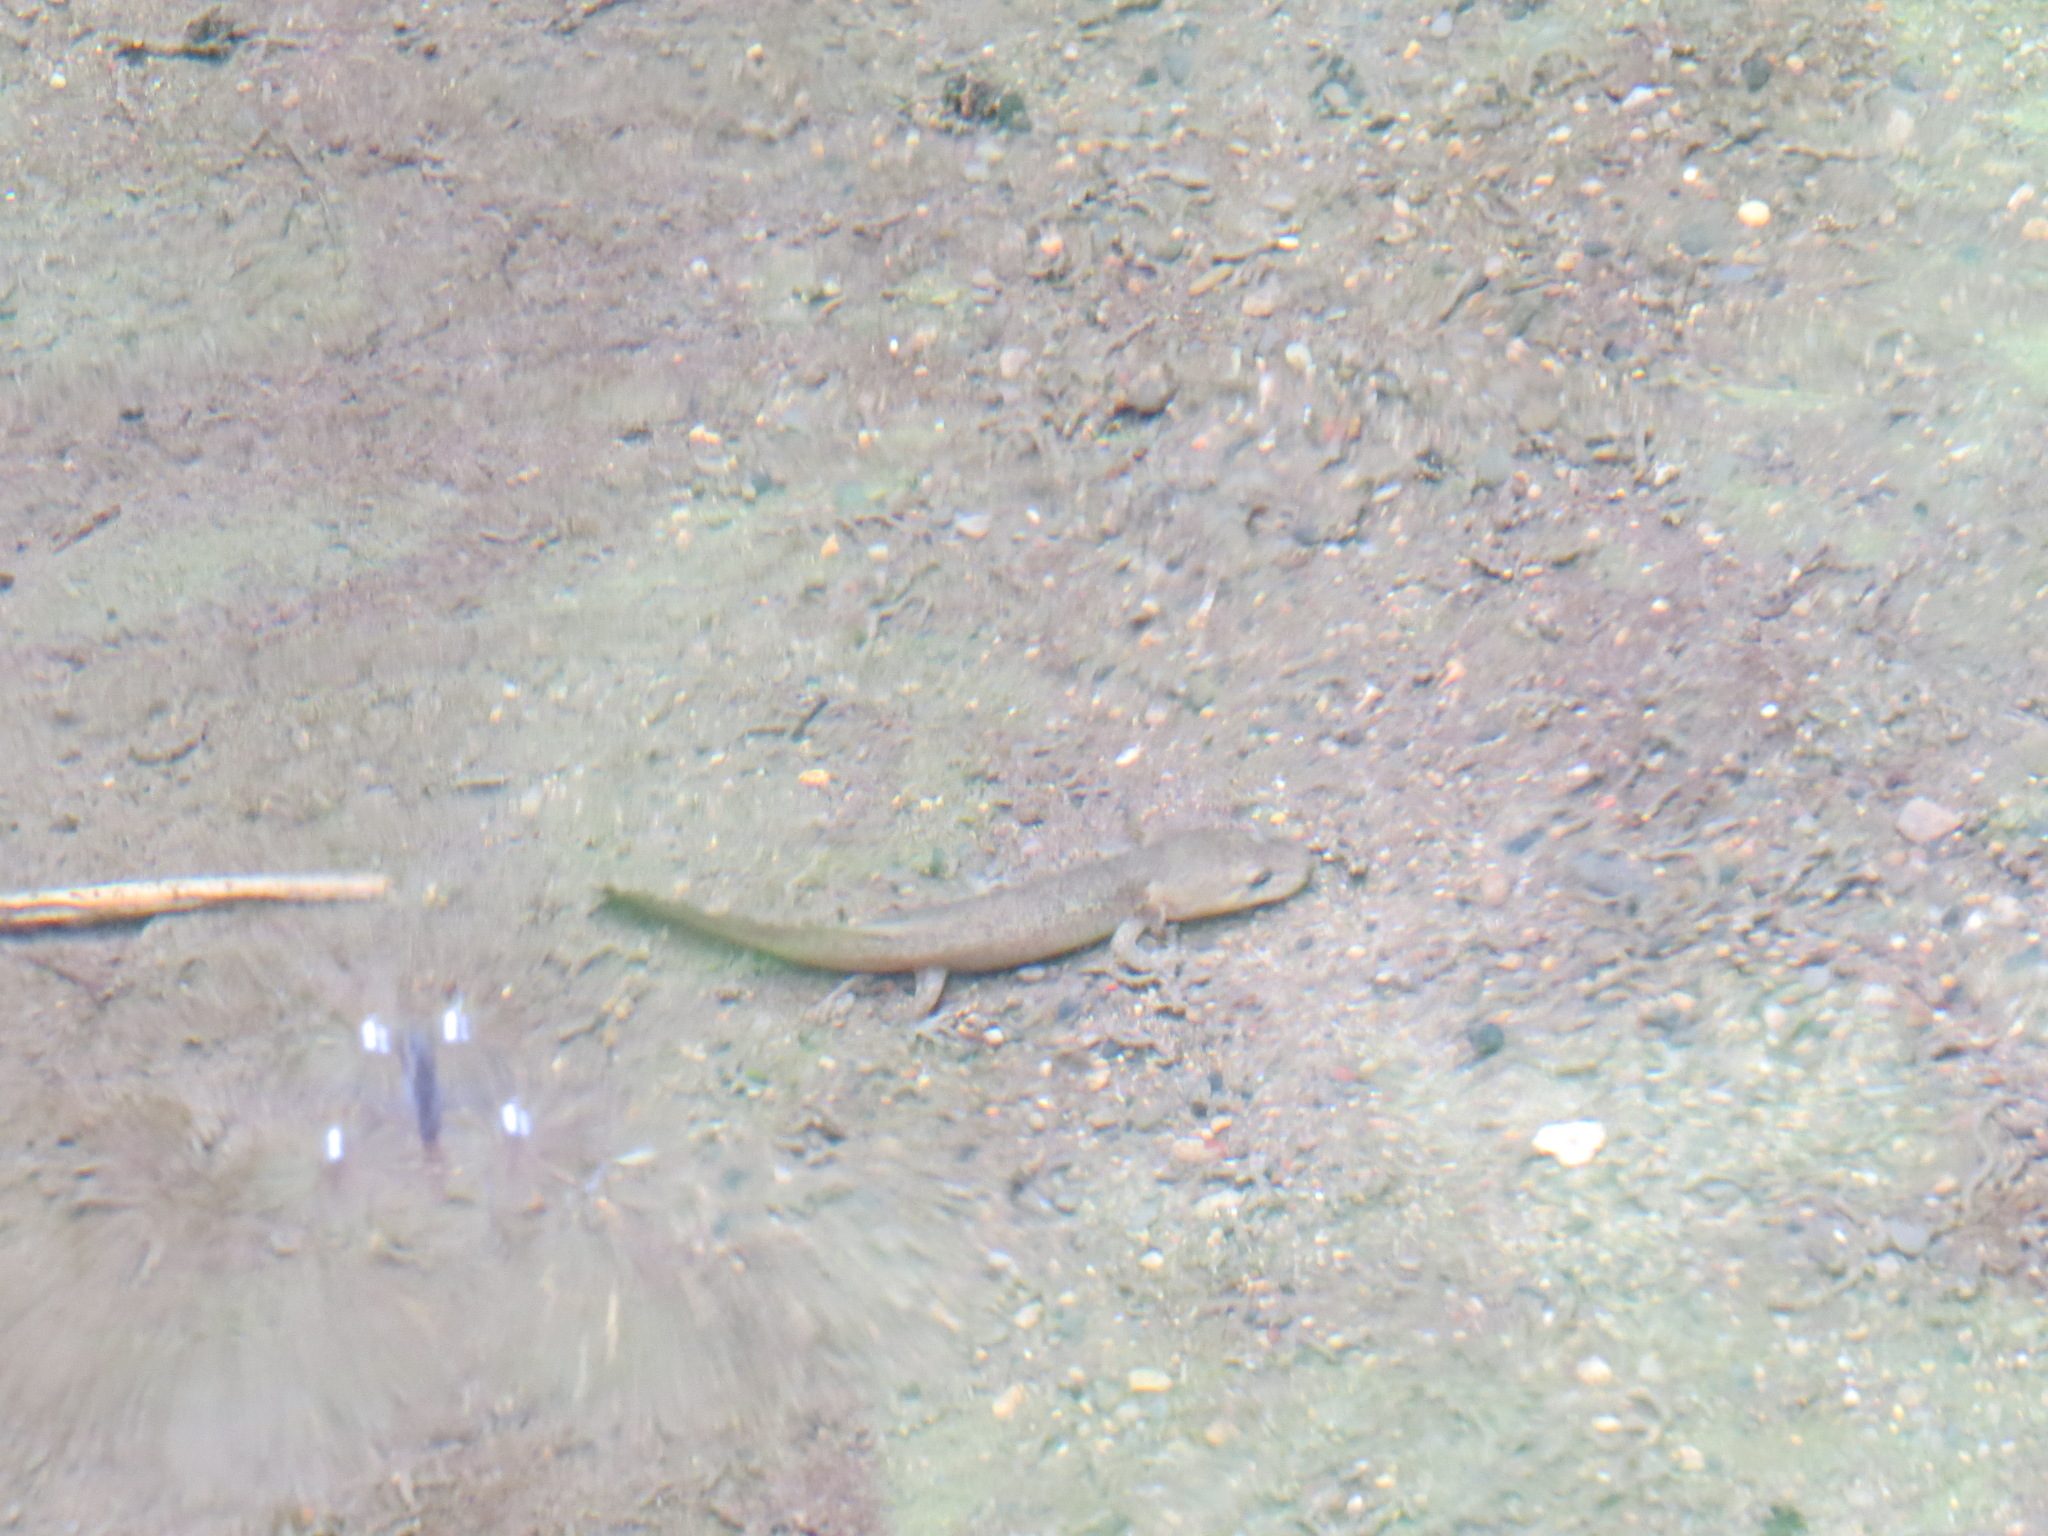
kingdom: Animalia
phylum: Chordata
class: Amphibia
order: Caudata
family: Ambystomatidae
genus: Dicamptodon
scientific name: Dicamptodon ensatus
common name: California giant salamander
